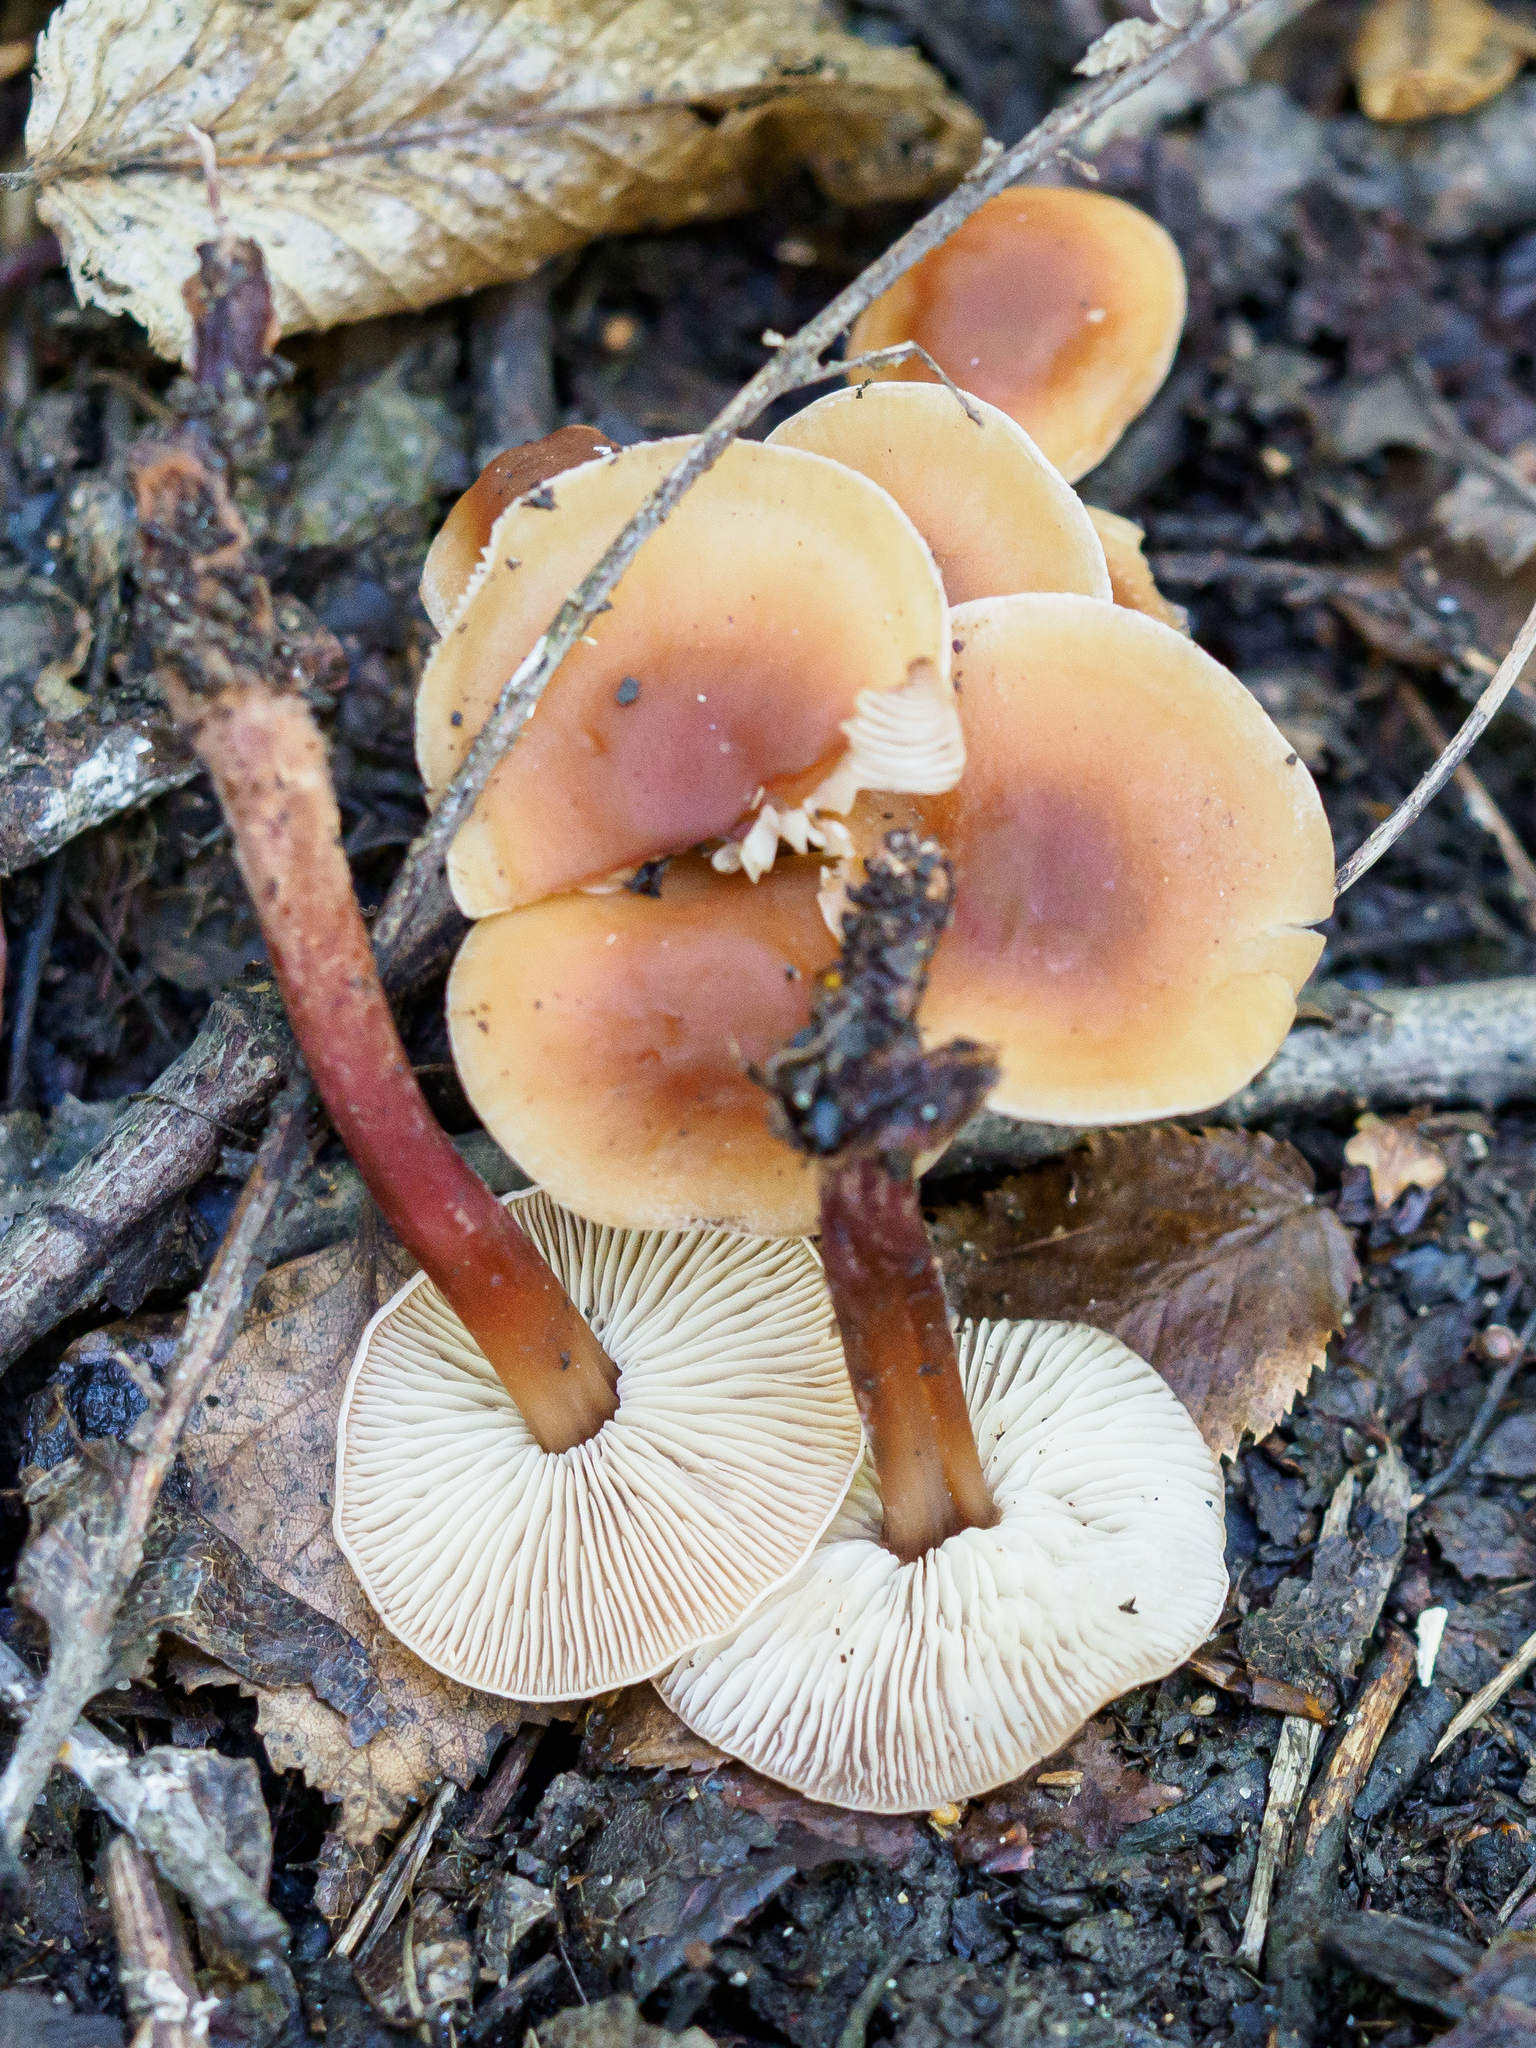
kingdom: Fungi
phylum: Basidiomycota
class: Agaricomycetes
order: Agaricales
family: Omphalotaceae
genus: Gymnopus
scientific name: Gymnopus erythropus
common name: Redleg toughshank
